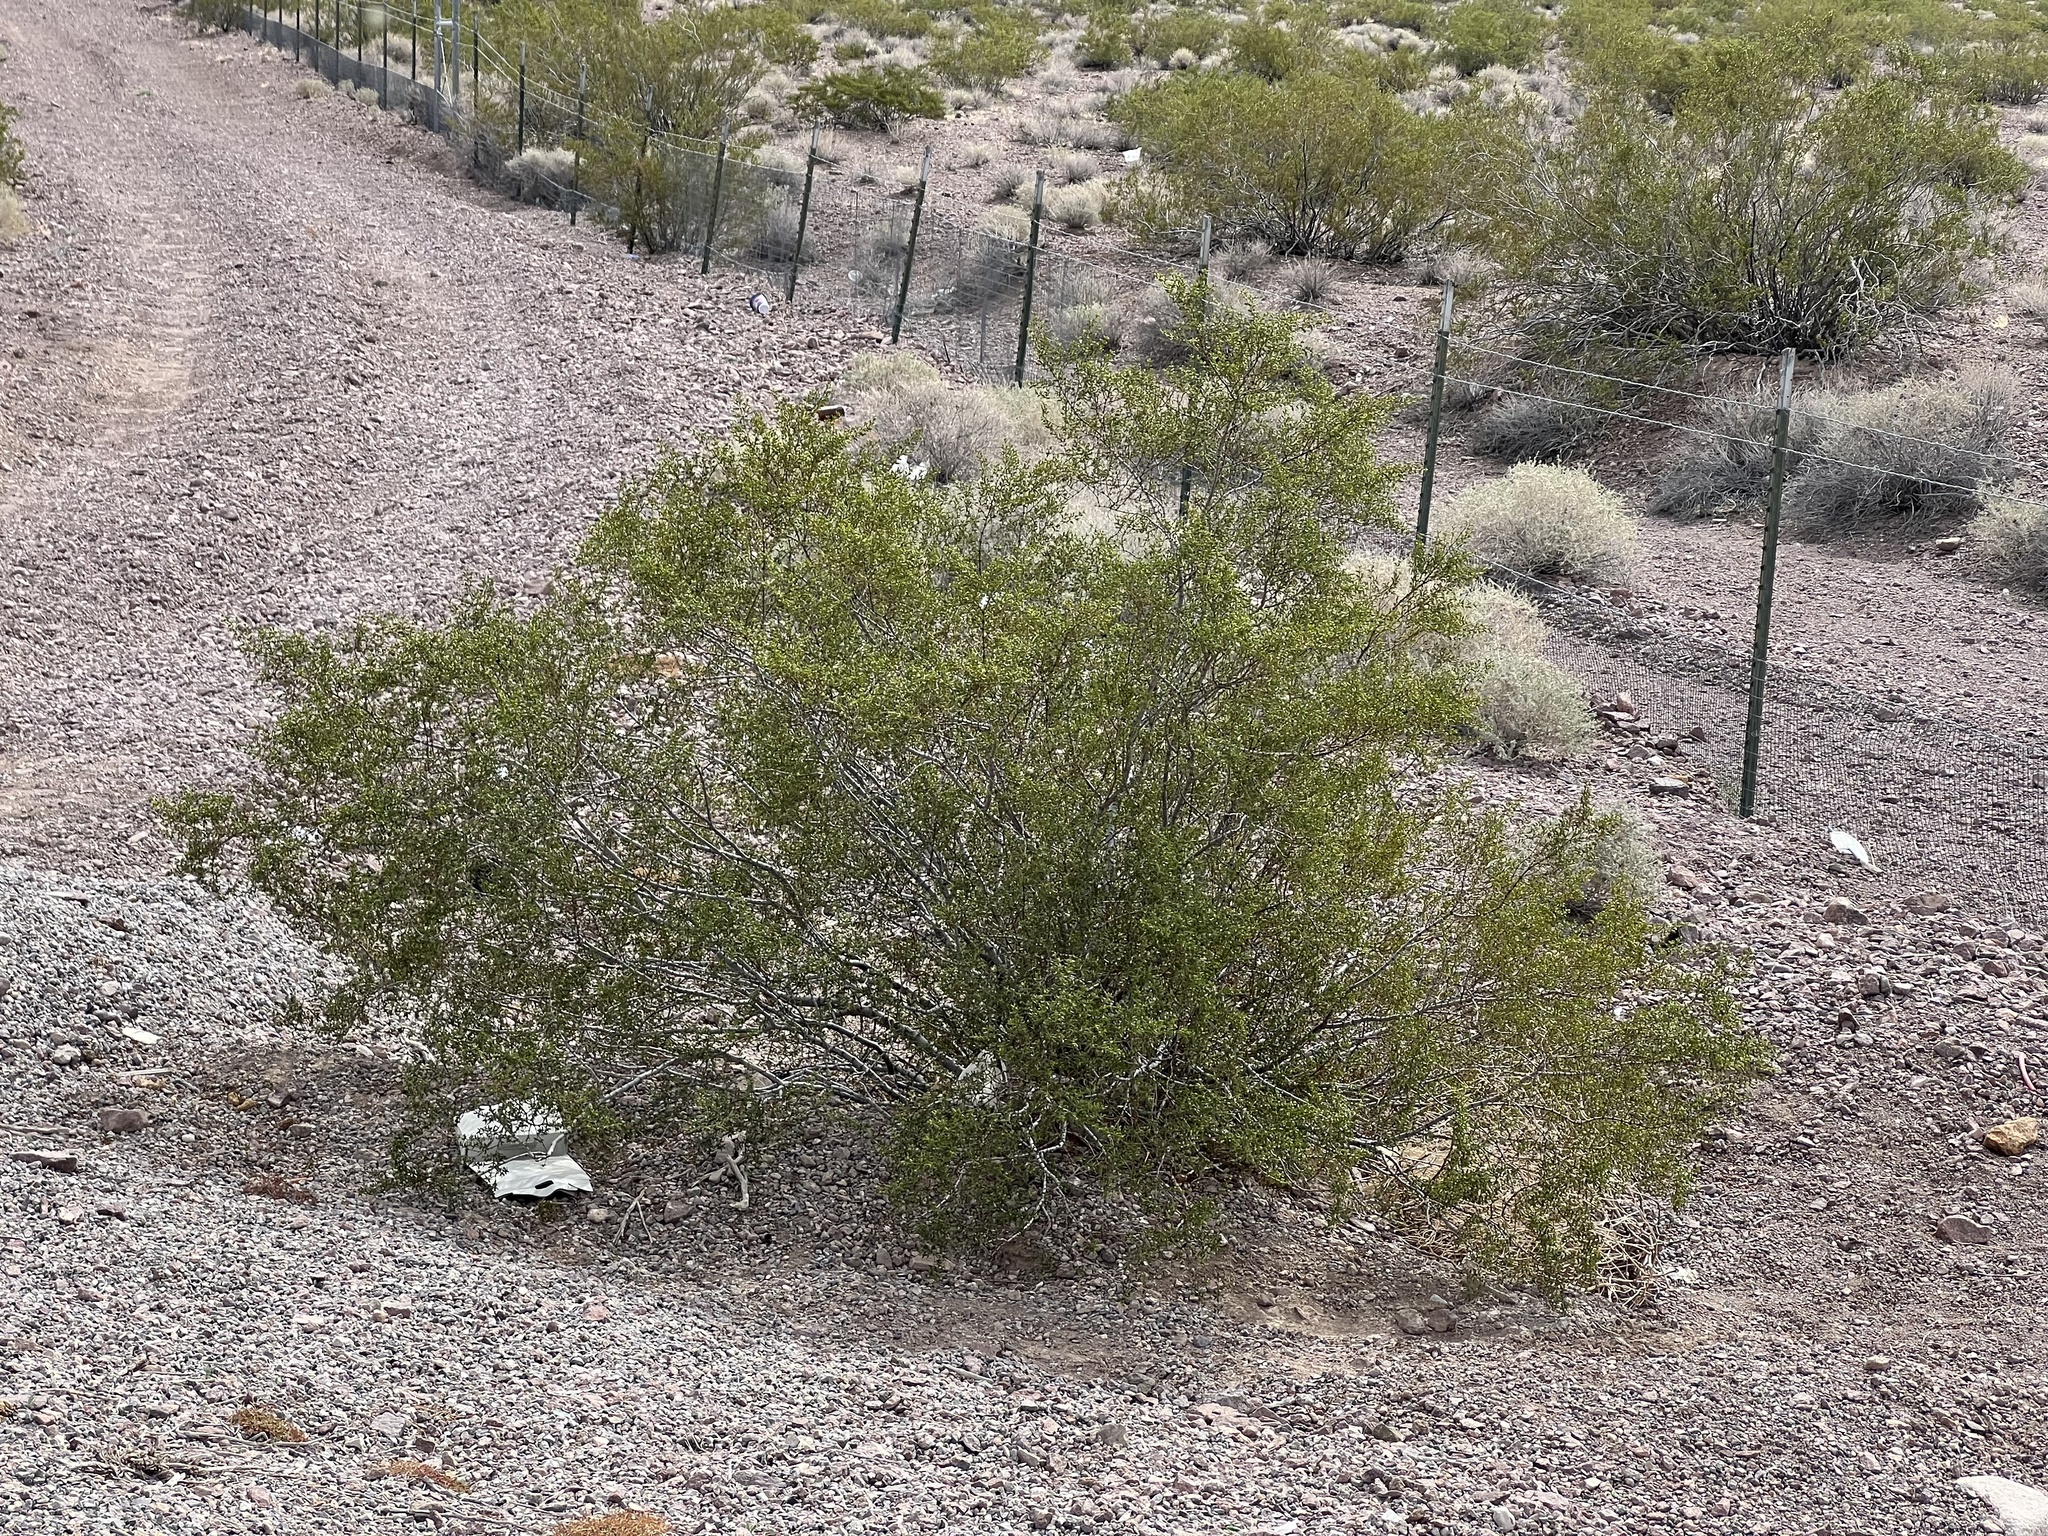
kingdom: Plantae
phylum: Tracheophyta
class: Magnoliopsida
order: Zygophyllales
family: Zygophyllaceae
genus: Larrea
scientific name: Larrea tridentata
